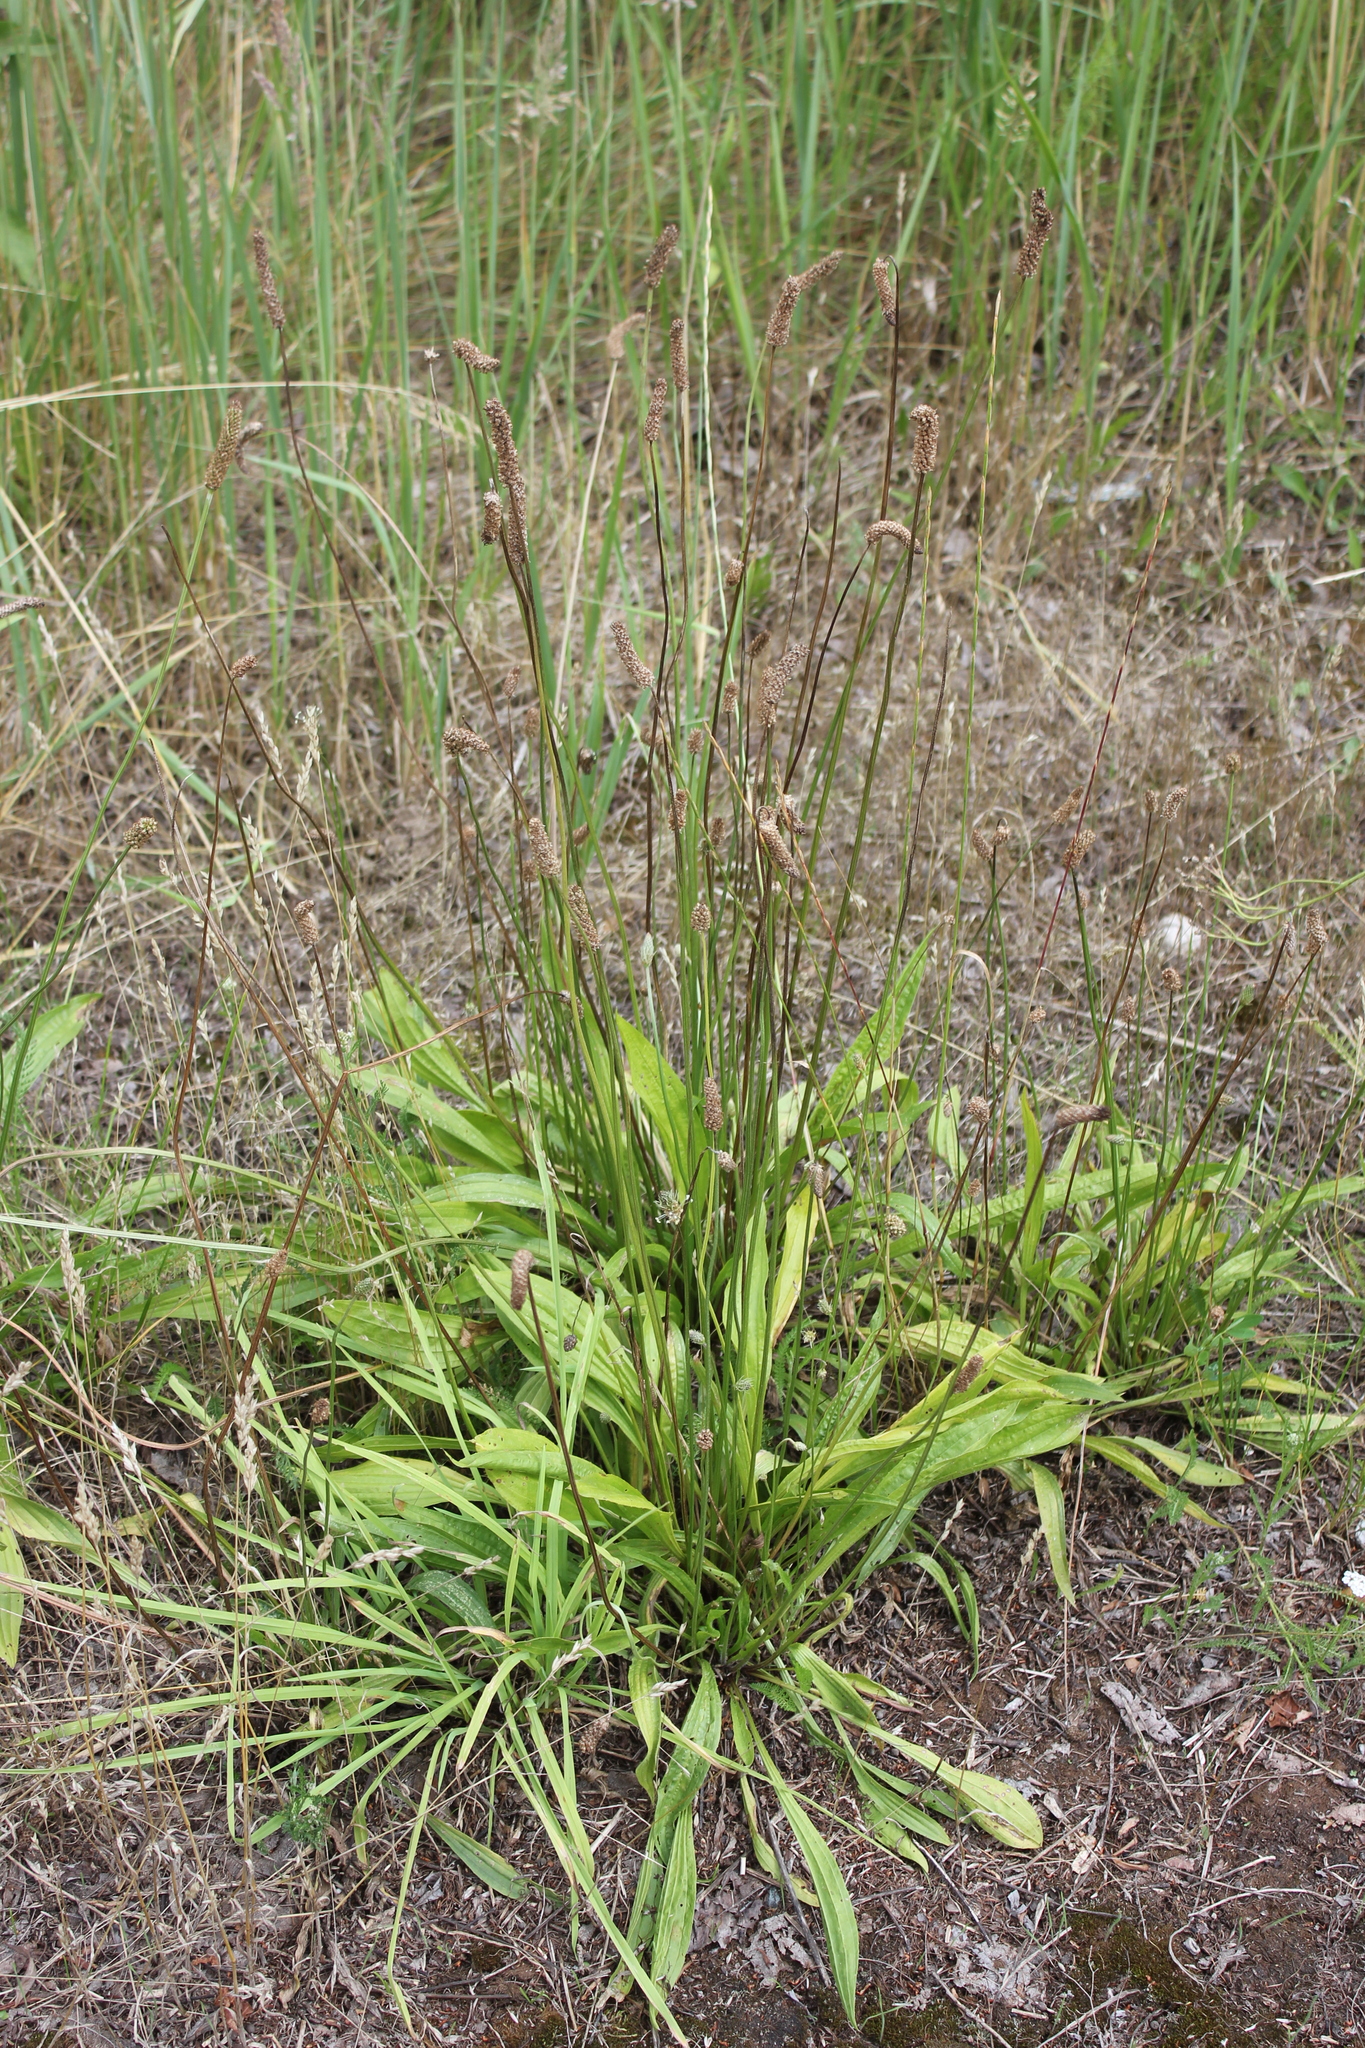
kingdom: Plantae
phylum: Tracheophyta
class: Magnoliopsida
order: Lamiales
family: Plantaginaceae
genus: Plantago
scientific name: Plantago lanceolata
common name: Ribwort plantain
